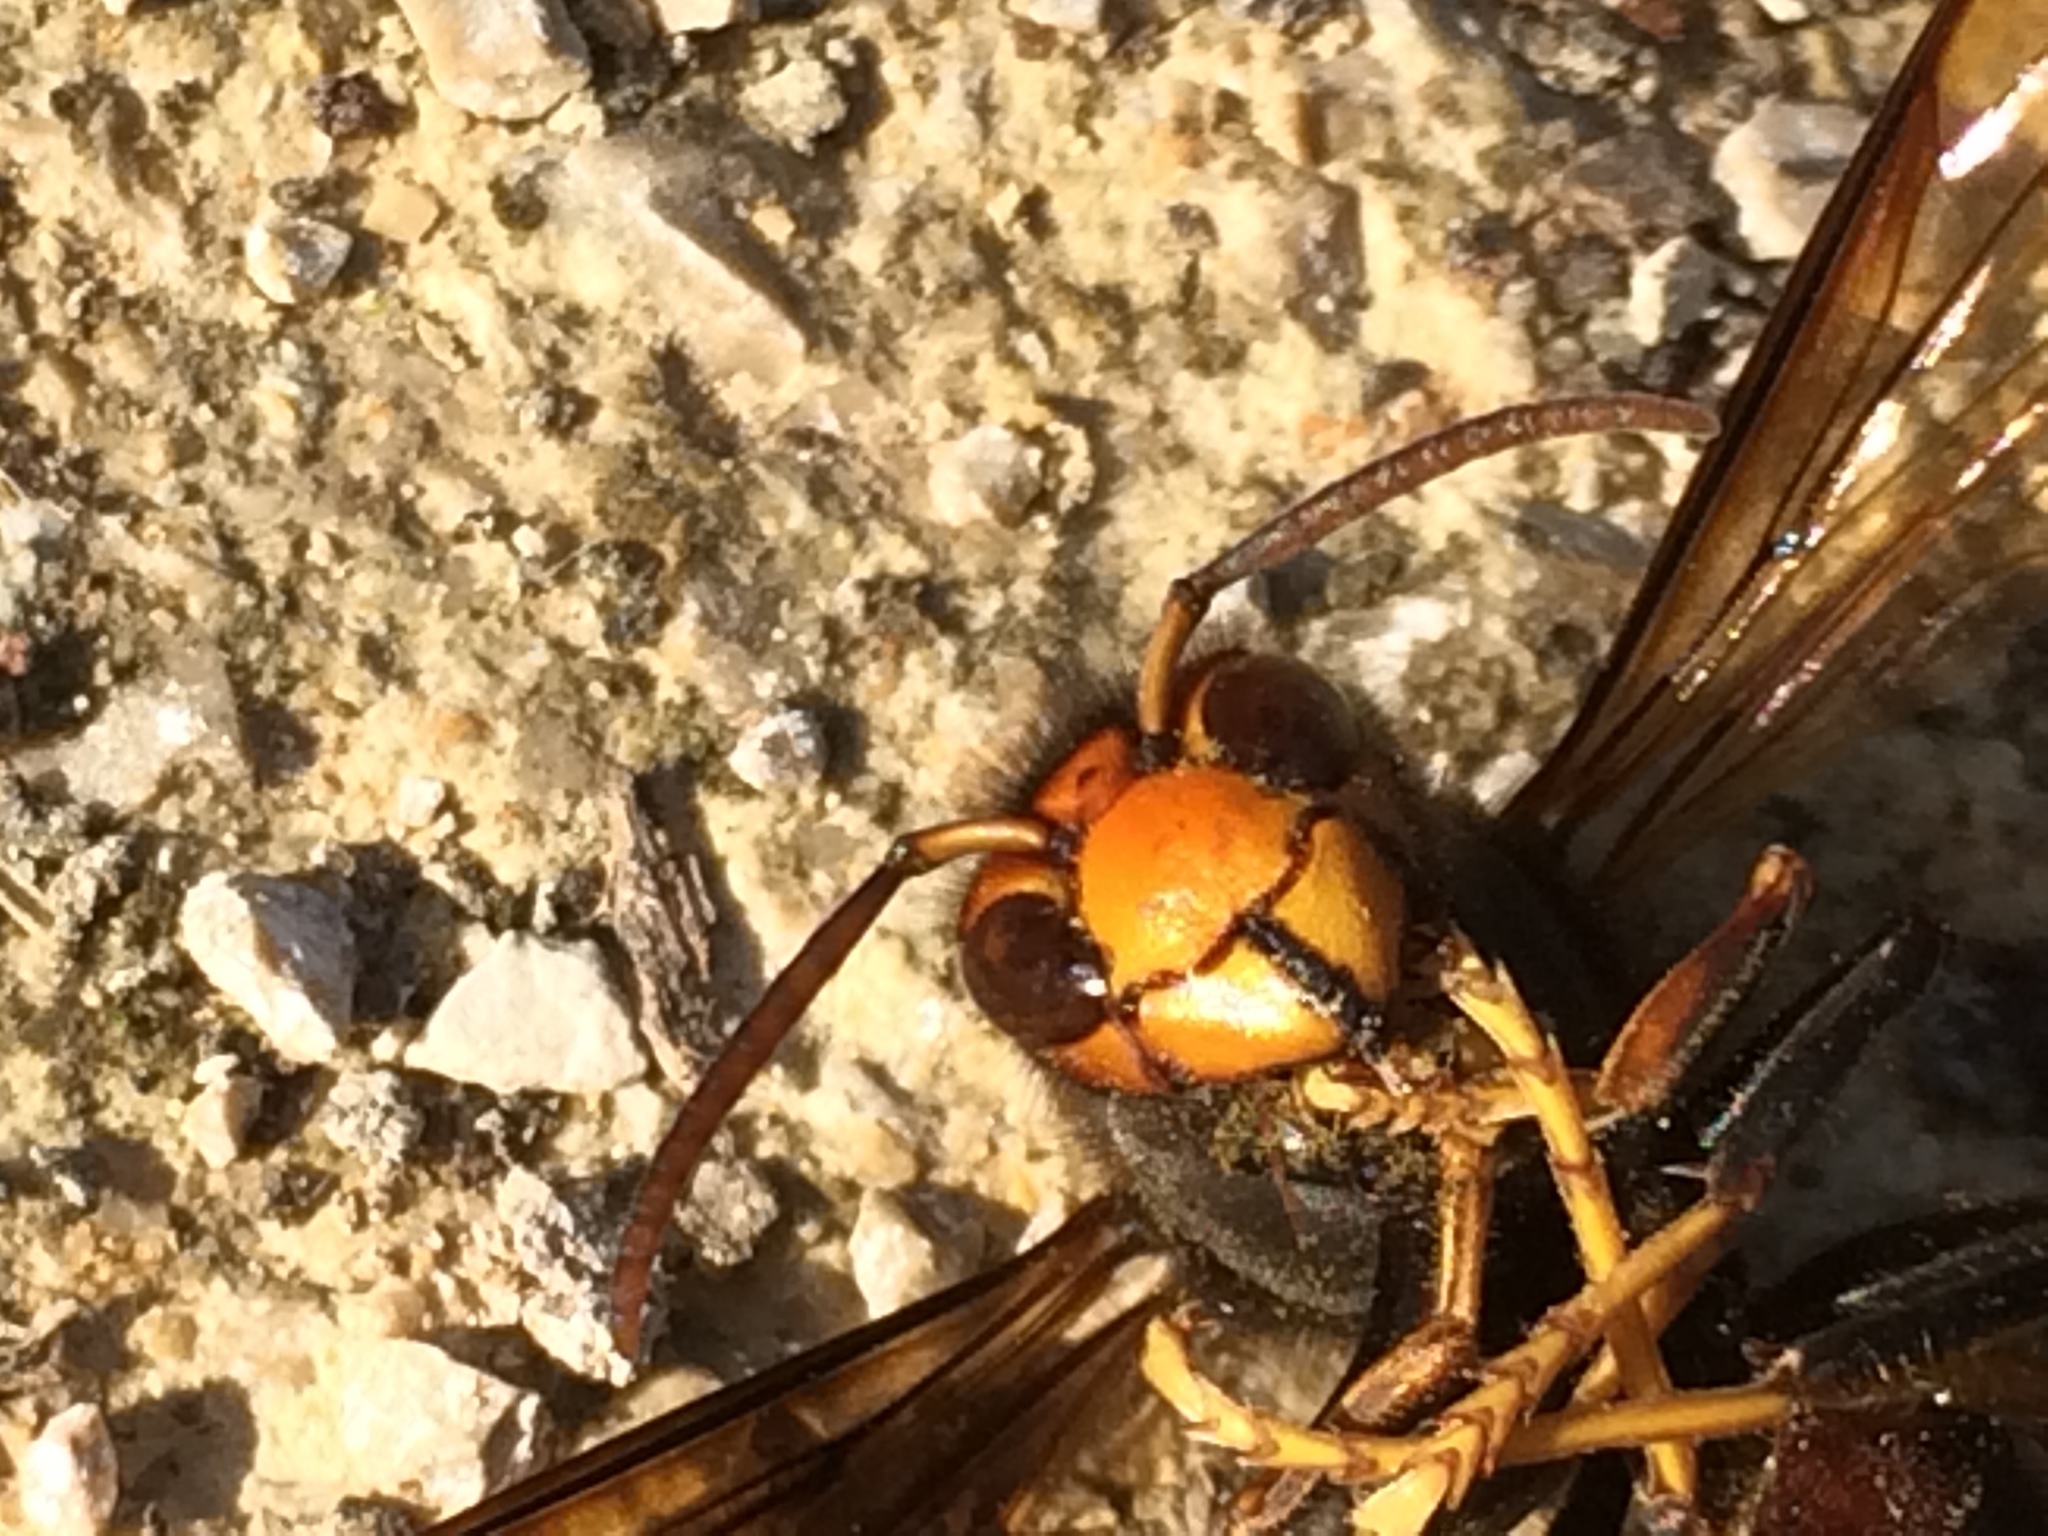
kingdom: Animalia
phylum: Arthropoda
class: Insecta
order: Hymenoptera
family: Vespidae
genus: Vespa
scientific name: Vespa velutina
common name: Asian hornet
